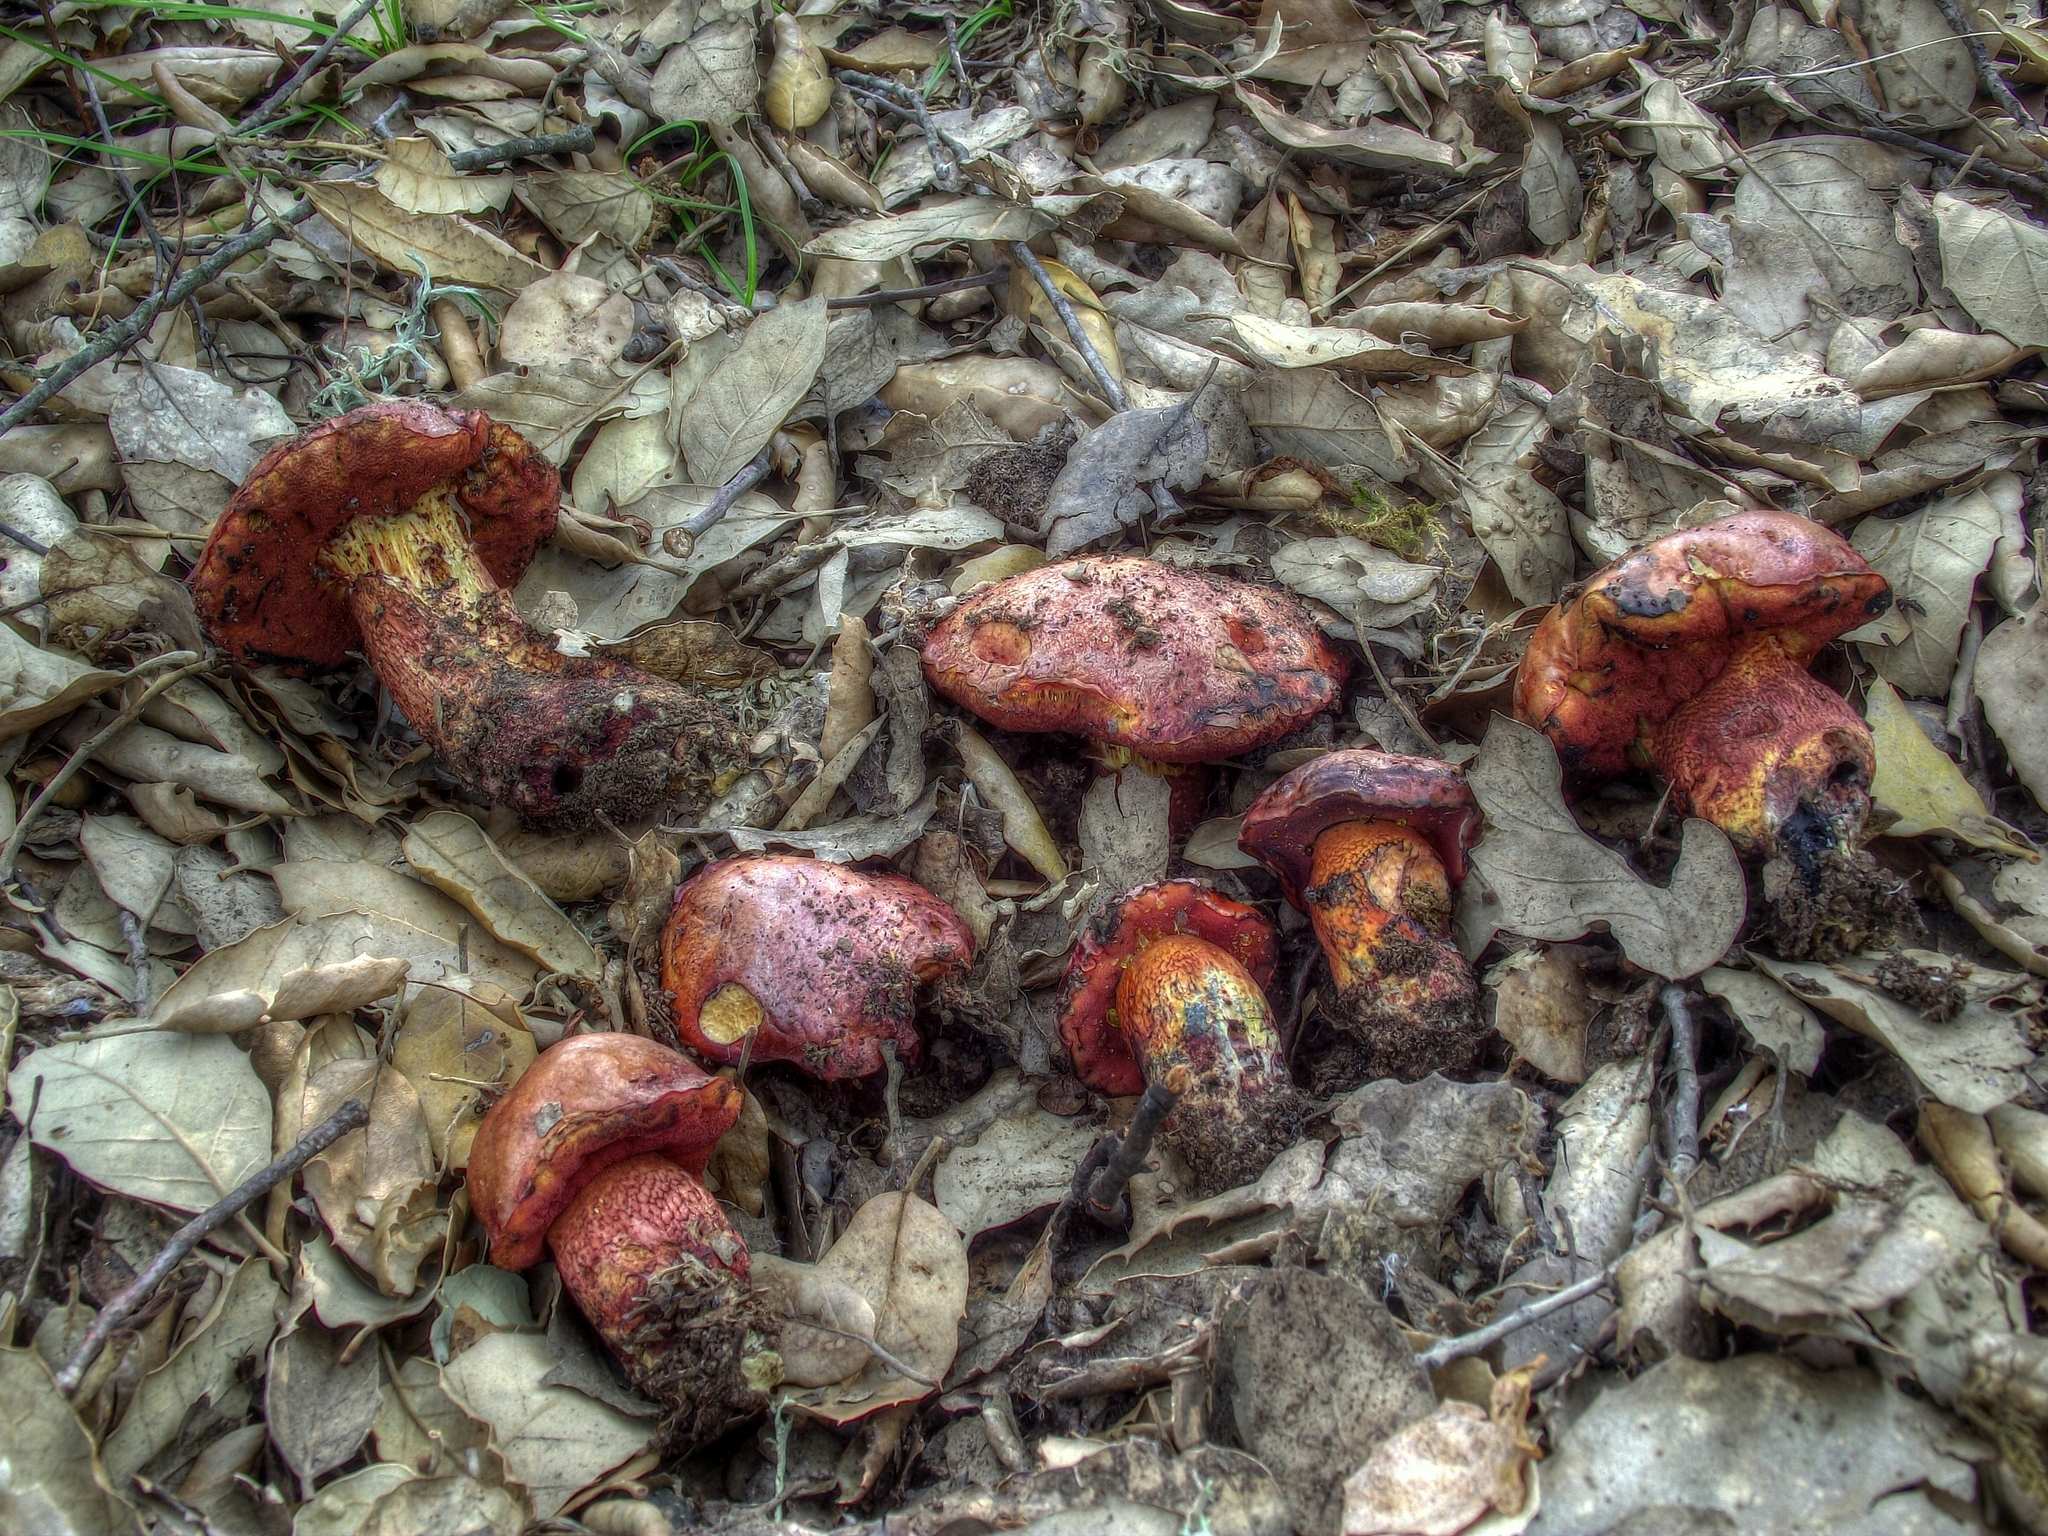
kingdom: Fungi
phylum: Basidiomycota
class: Agaricomycetes
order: Boletales
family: Boletaceae
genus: Suillellus
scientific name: Suillellus permagnificus
